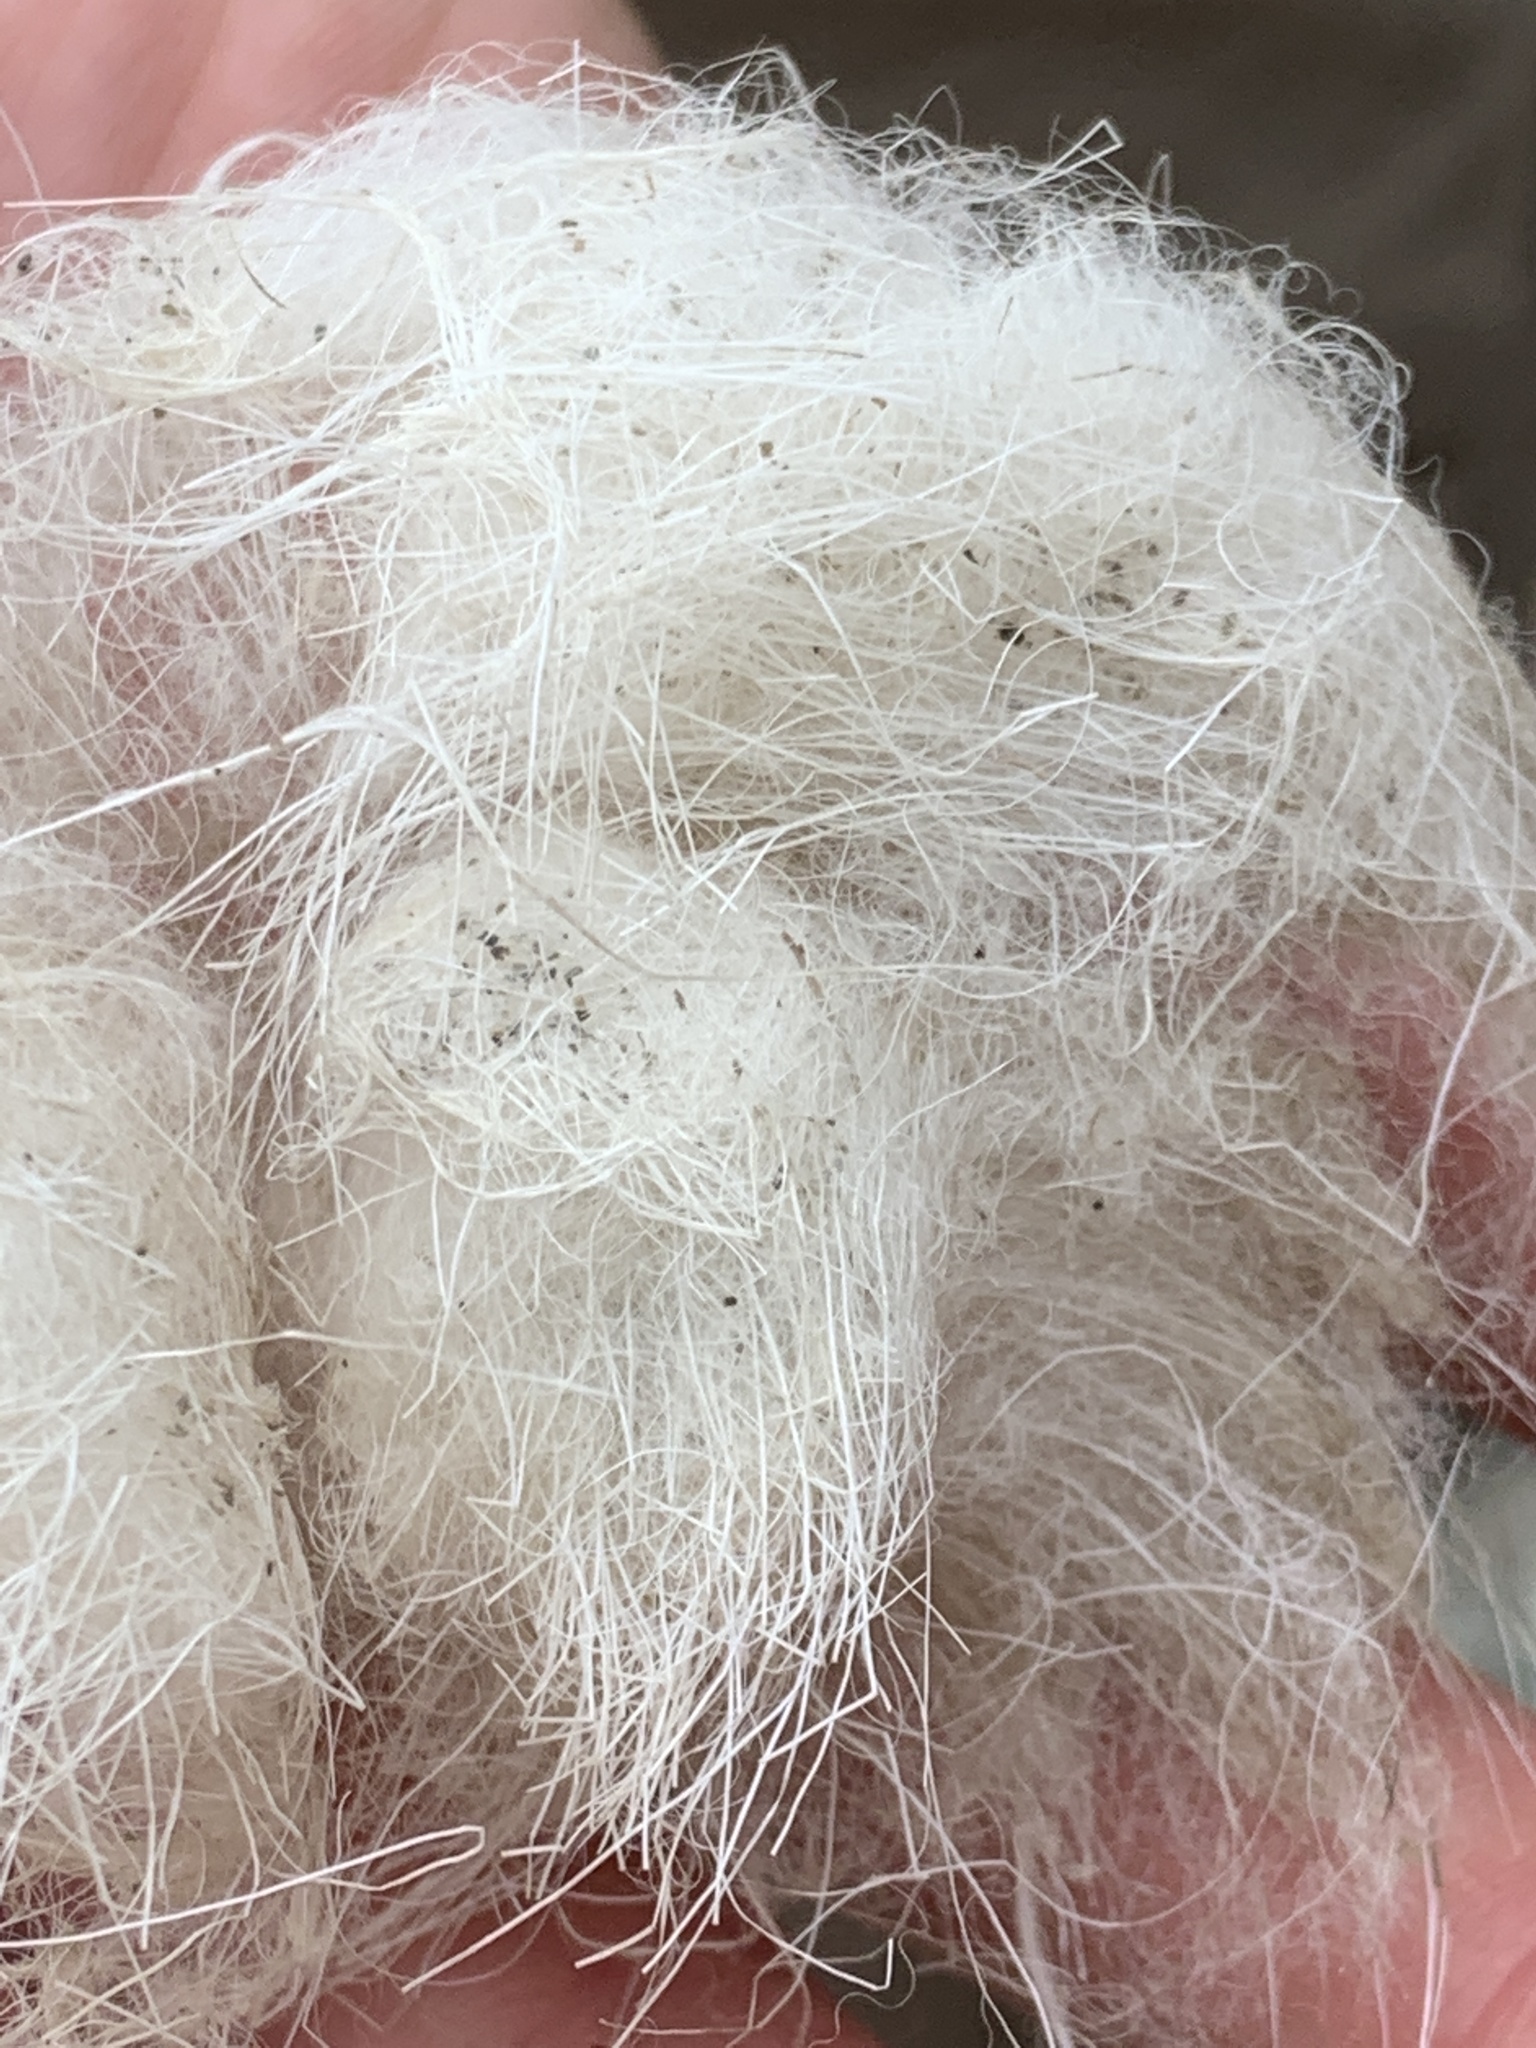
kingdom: Animalia
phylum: Chordata
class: Mammalia
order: Artiodactyla
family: Bovidae
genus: Oreamnos
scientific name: Oreamnos americanus
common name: Mountain goat
